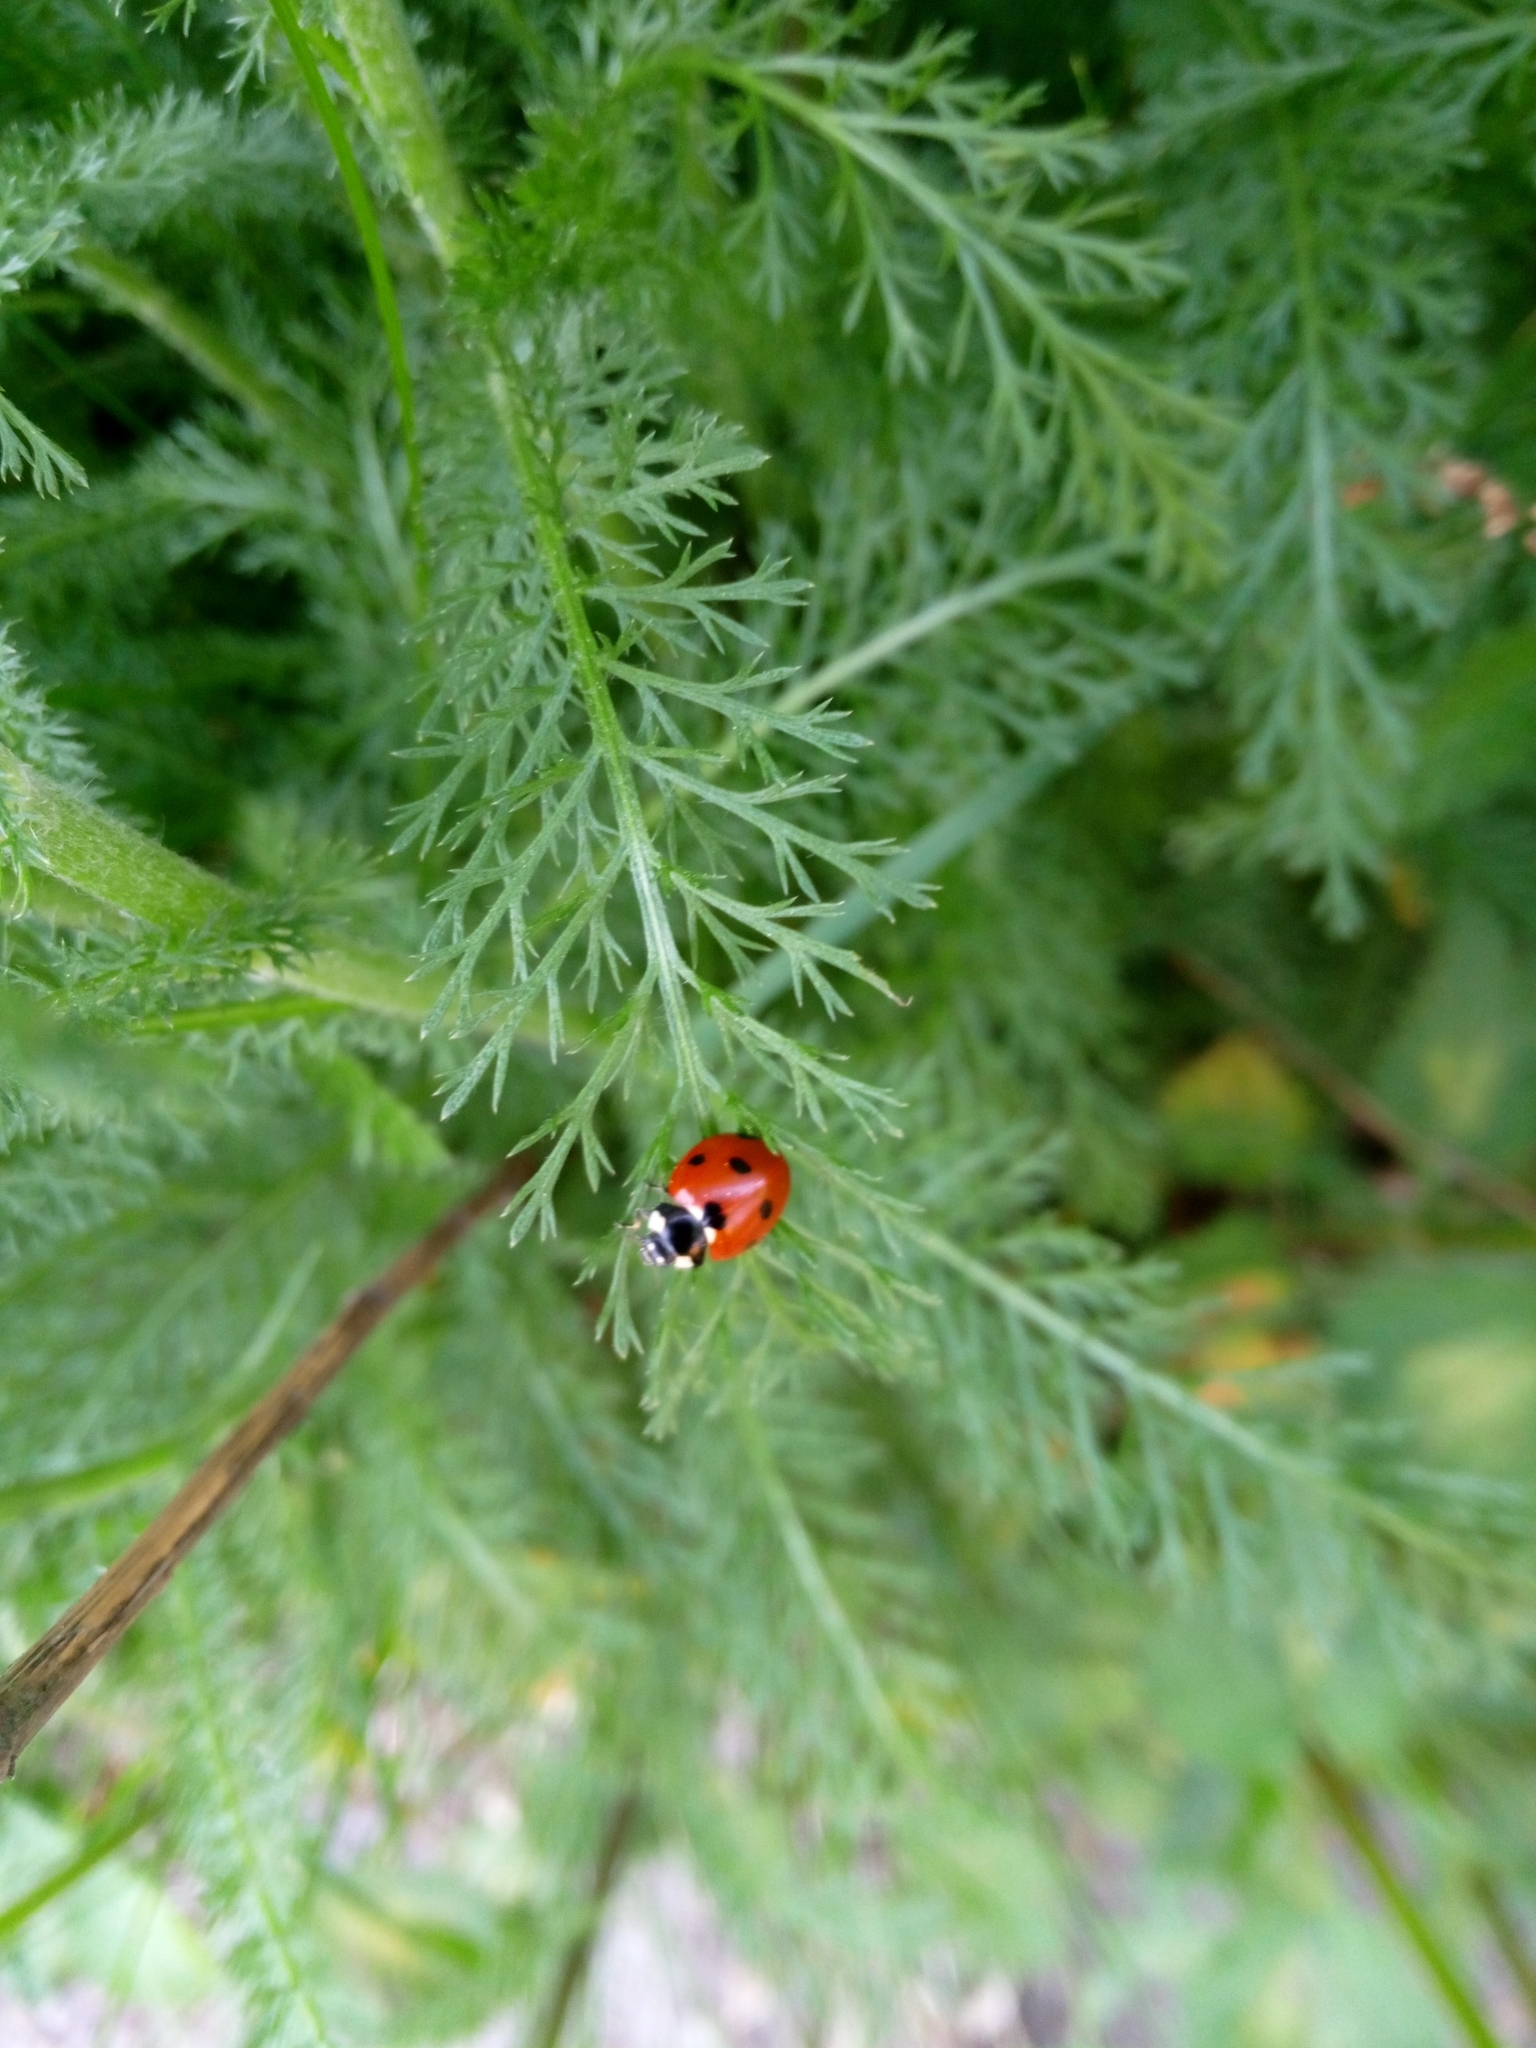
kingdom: Animalia
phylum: Arthropoda
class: Insecta
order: Coleoptera
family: Coccinellidae
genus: Coccinella
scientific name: Coccinella septempunctata
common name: Sevenspotted lady beetle
